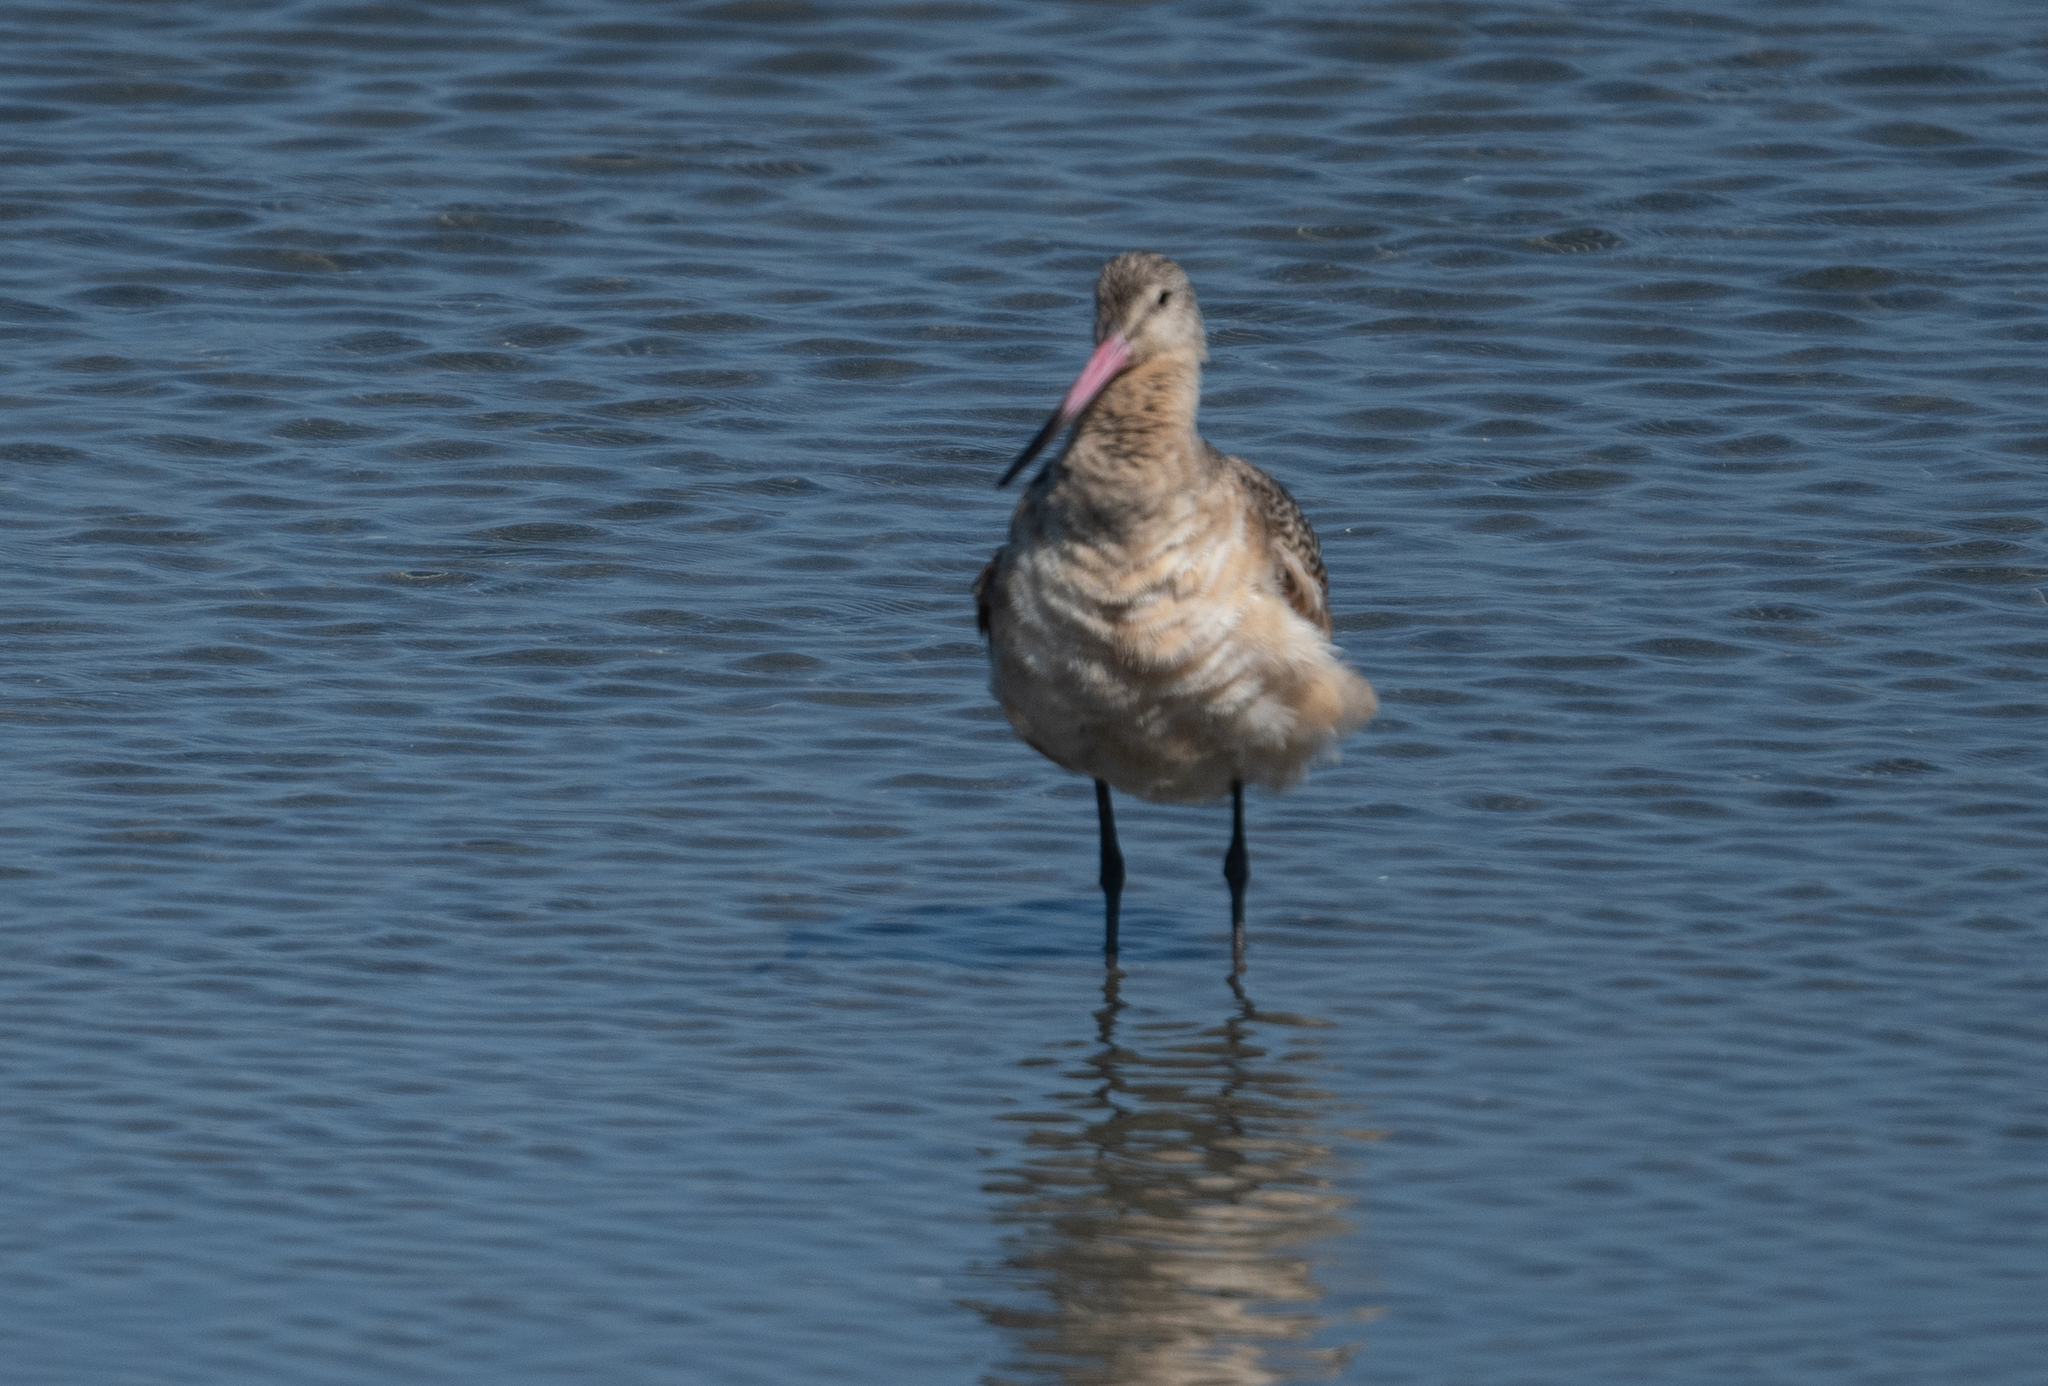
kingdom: Animalia
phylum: Chordata
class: Aves
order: Charadriiformes
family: Scolopacidae
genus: Limosa
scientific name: Limosa fedoa
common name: Marbled godwit
